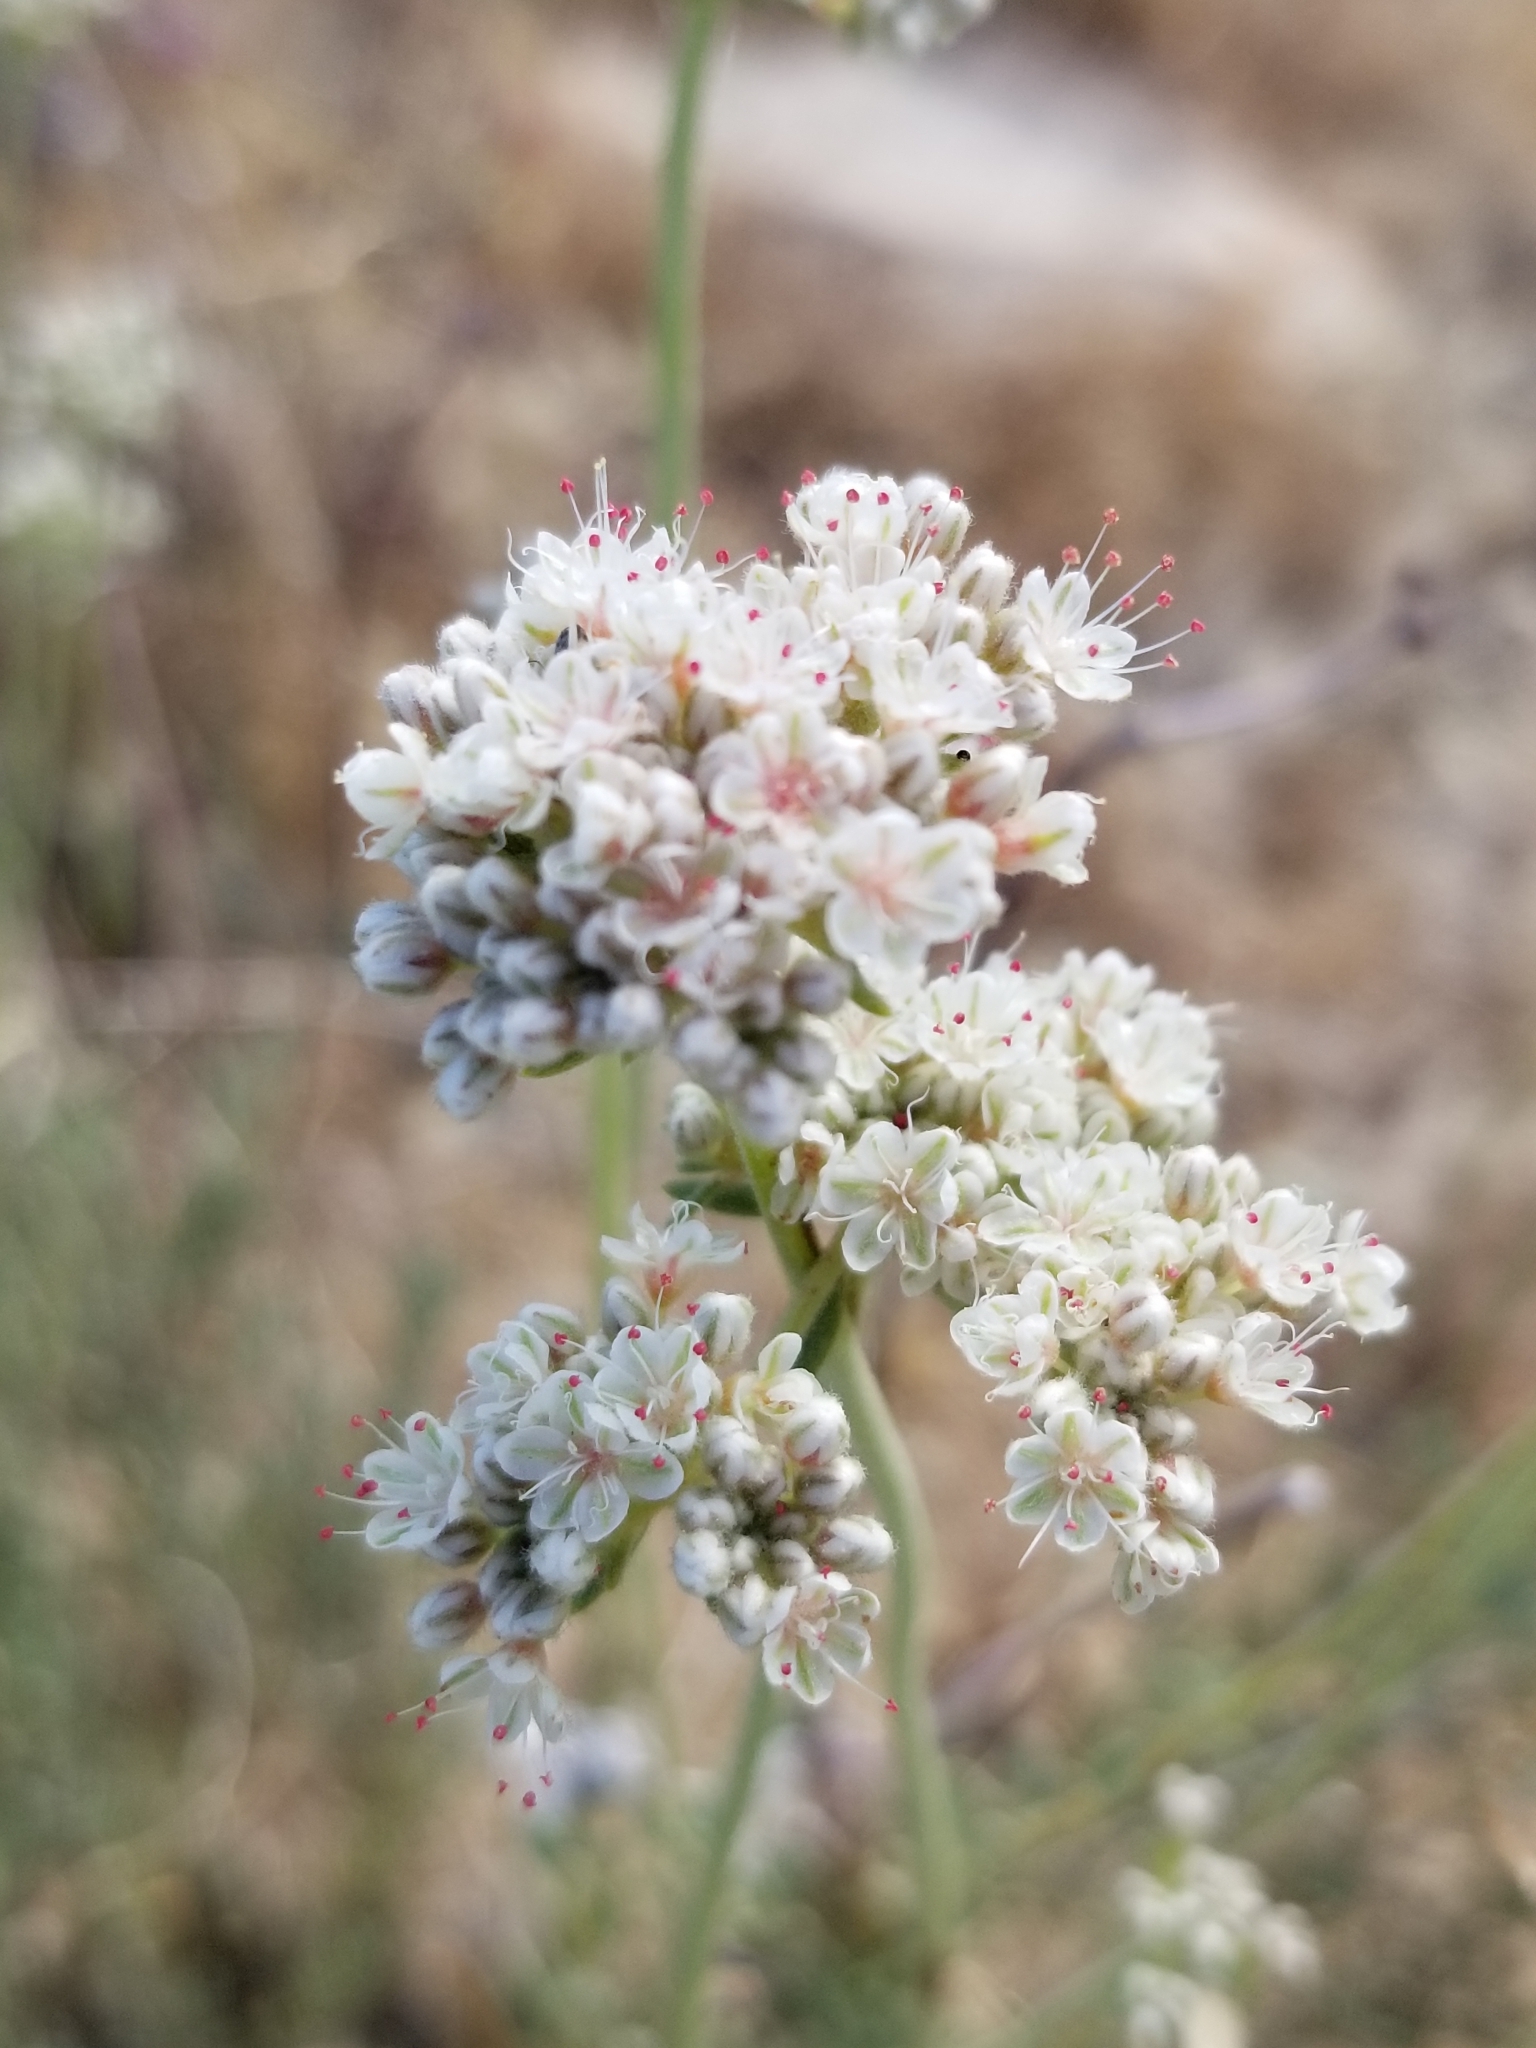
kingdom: Plantae
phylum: Tracheophyta
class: Magnoliopsida
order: Caryophyllales
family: Polygonaceae
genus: Eriogonum
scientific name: Eriogonum fasciculatum
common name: California wild buckwheat
